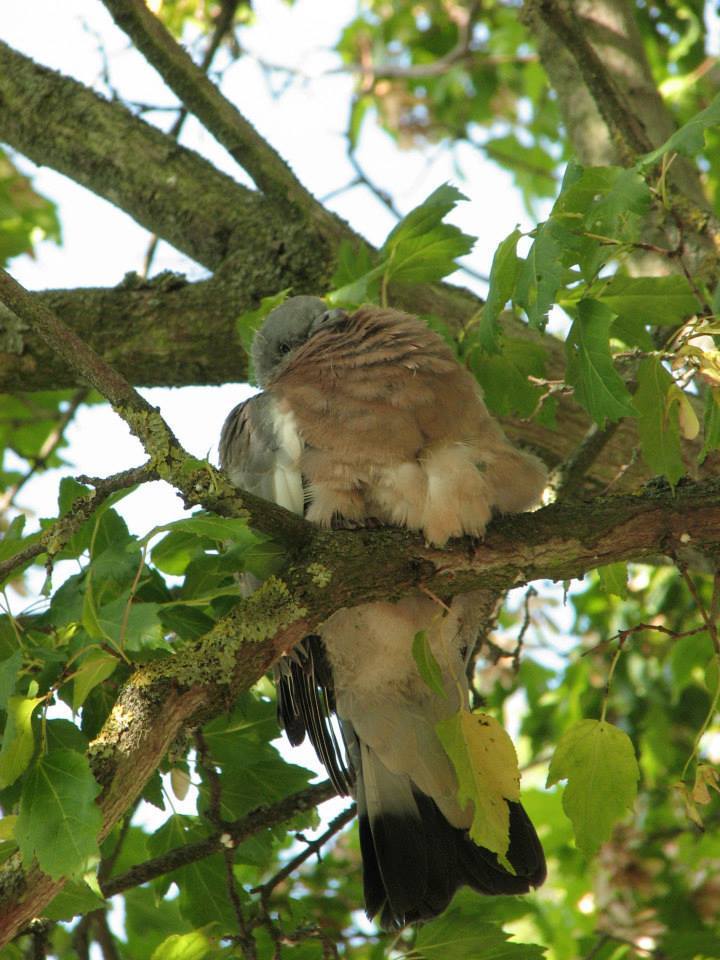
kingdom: Animalia
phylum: Chordata
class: Aves
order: Columbiformes
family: Columbidae
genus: Columba
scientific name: Columba palumbus
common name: Common wood pigeon
